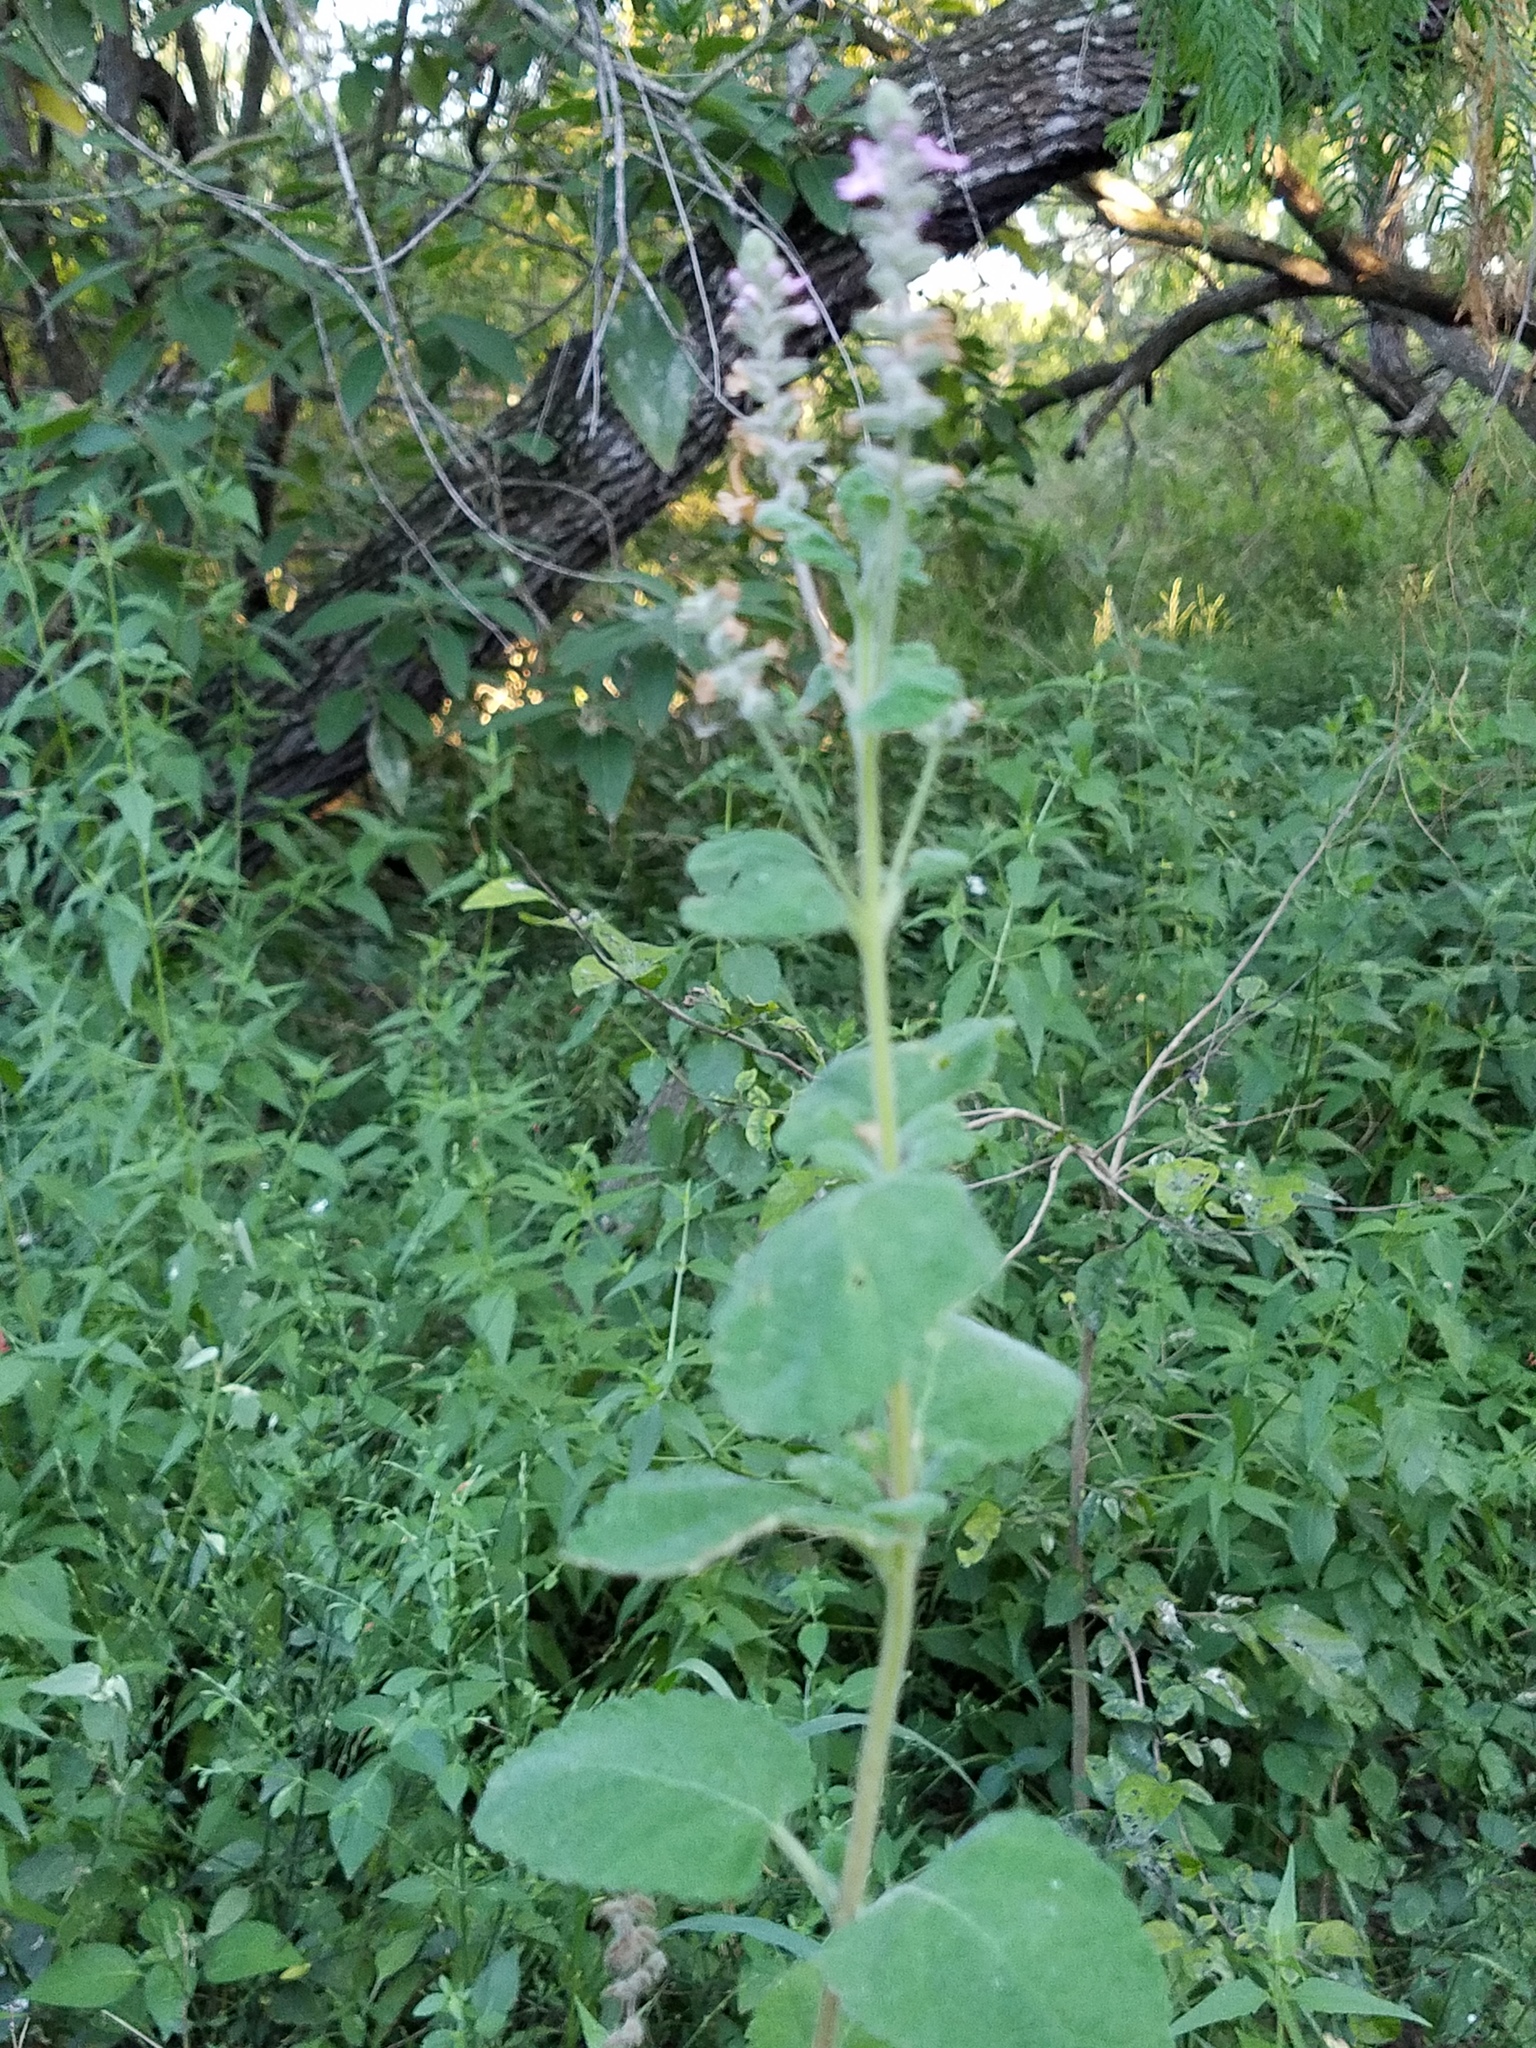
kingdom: Plantae
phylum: Tracheophyta
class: Magnoliopsida
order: Lamiales
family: Verbenaceae
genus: Aloysia
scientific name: Aloysia macrostachya
